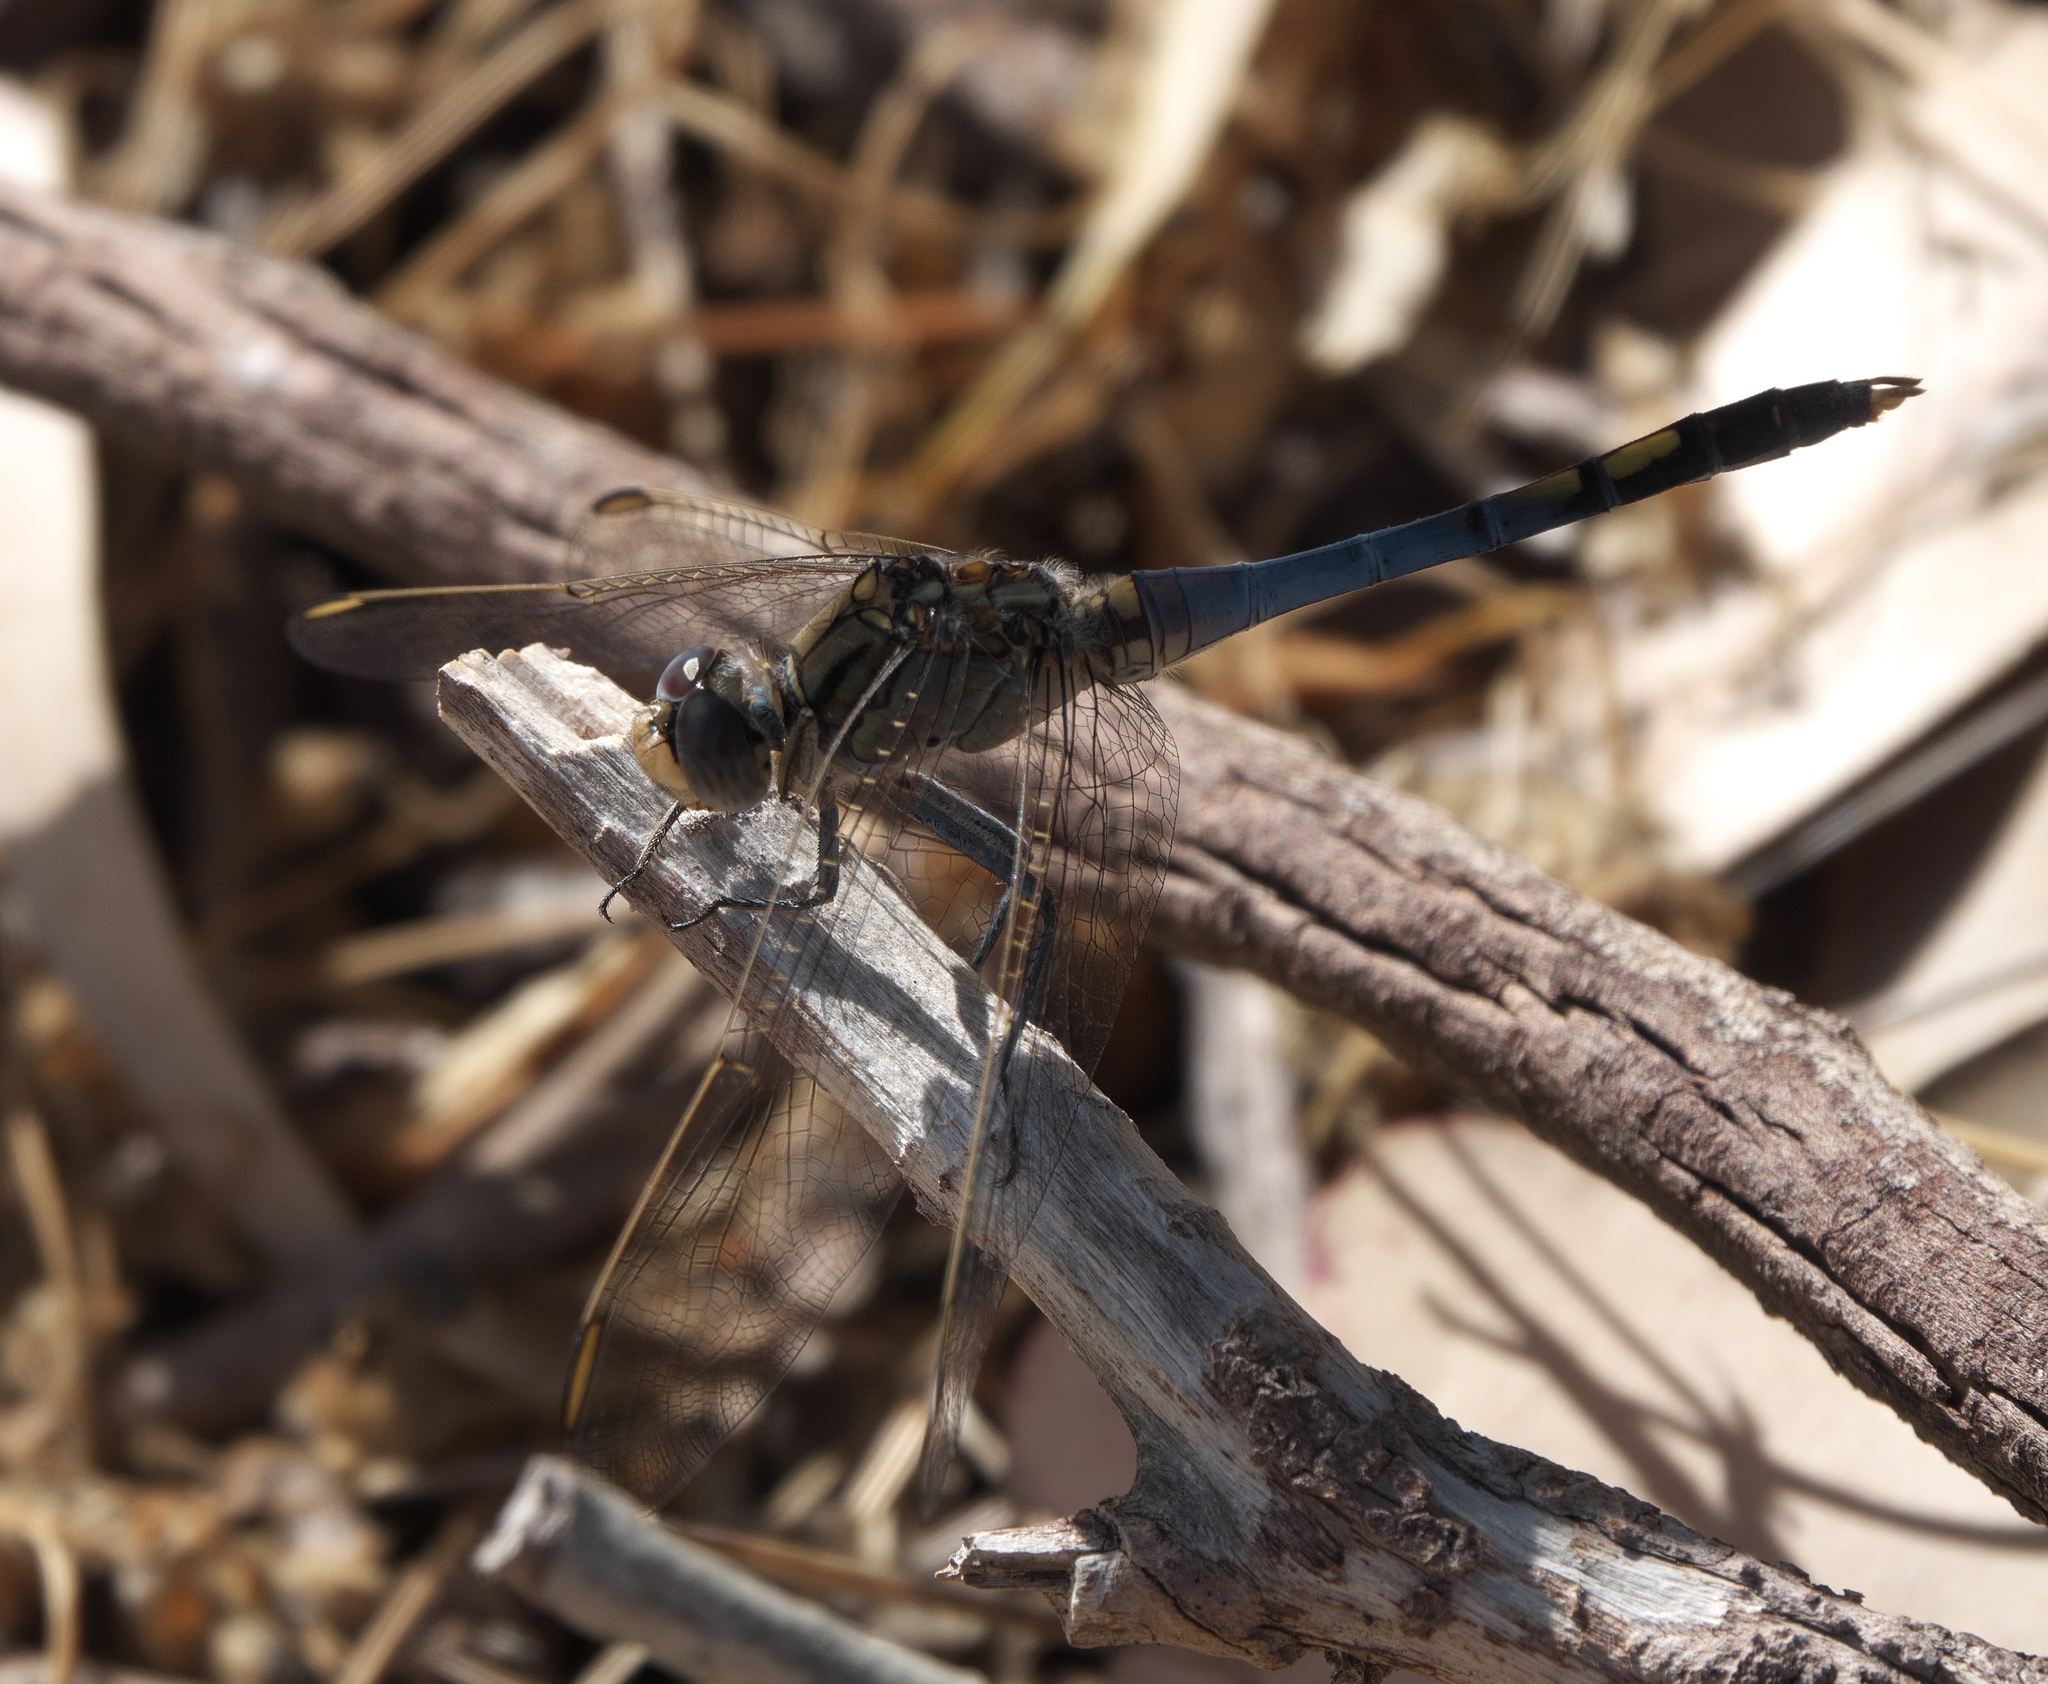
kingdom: Animalia
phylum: Arthropoda
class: Insecta
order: Odonata
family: Libellulidae
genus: Orthetrum
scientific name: Orthetrum caledonicum
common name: Blue skimmer
